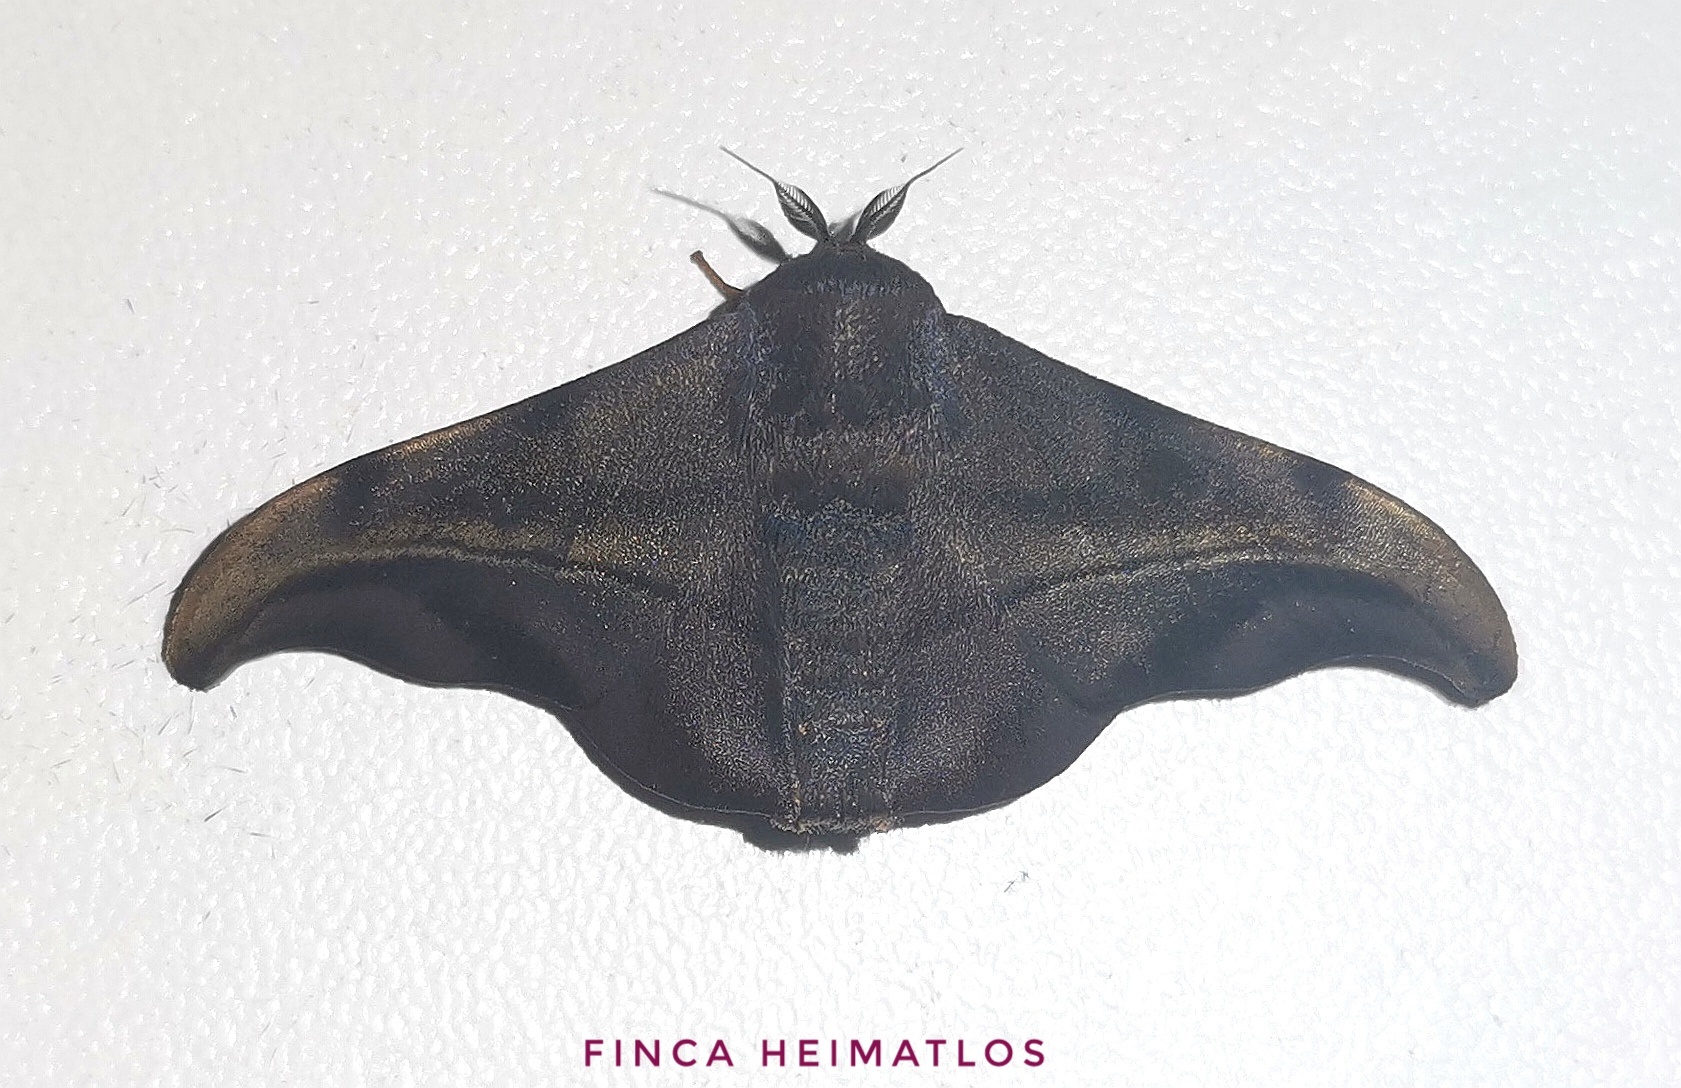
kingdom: Animalia
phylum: Arthropoda
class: Insecta
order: Lepidoptera
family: Mimallonidae
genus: Thaelia
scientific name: Thaelia subrubiginosa
